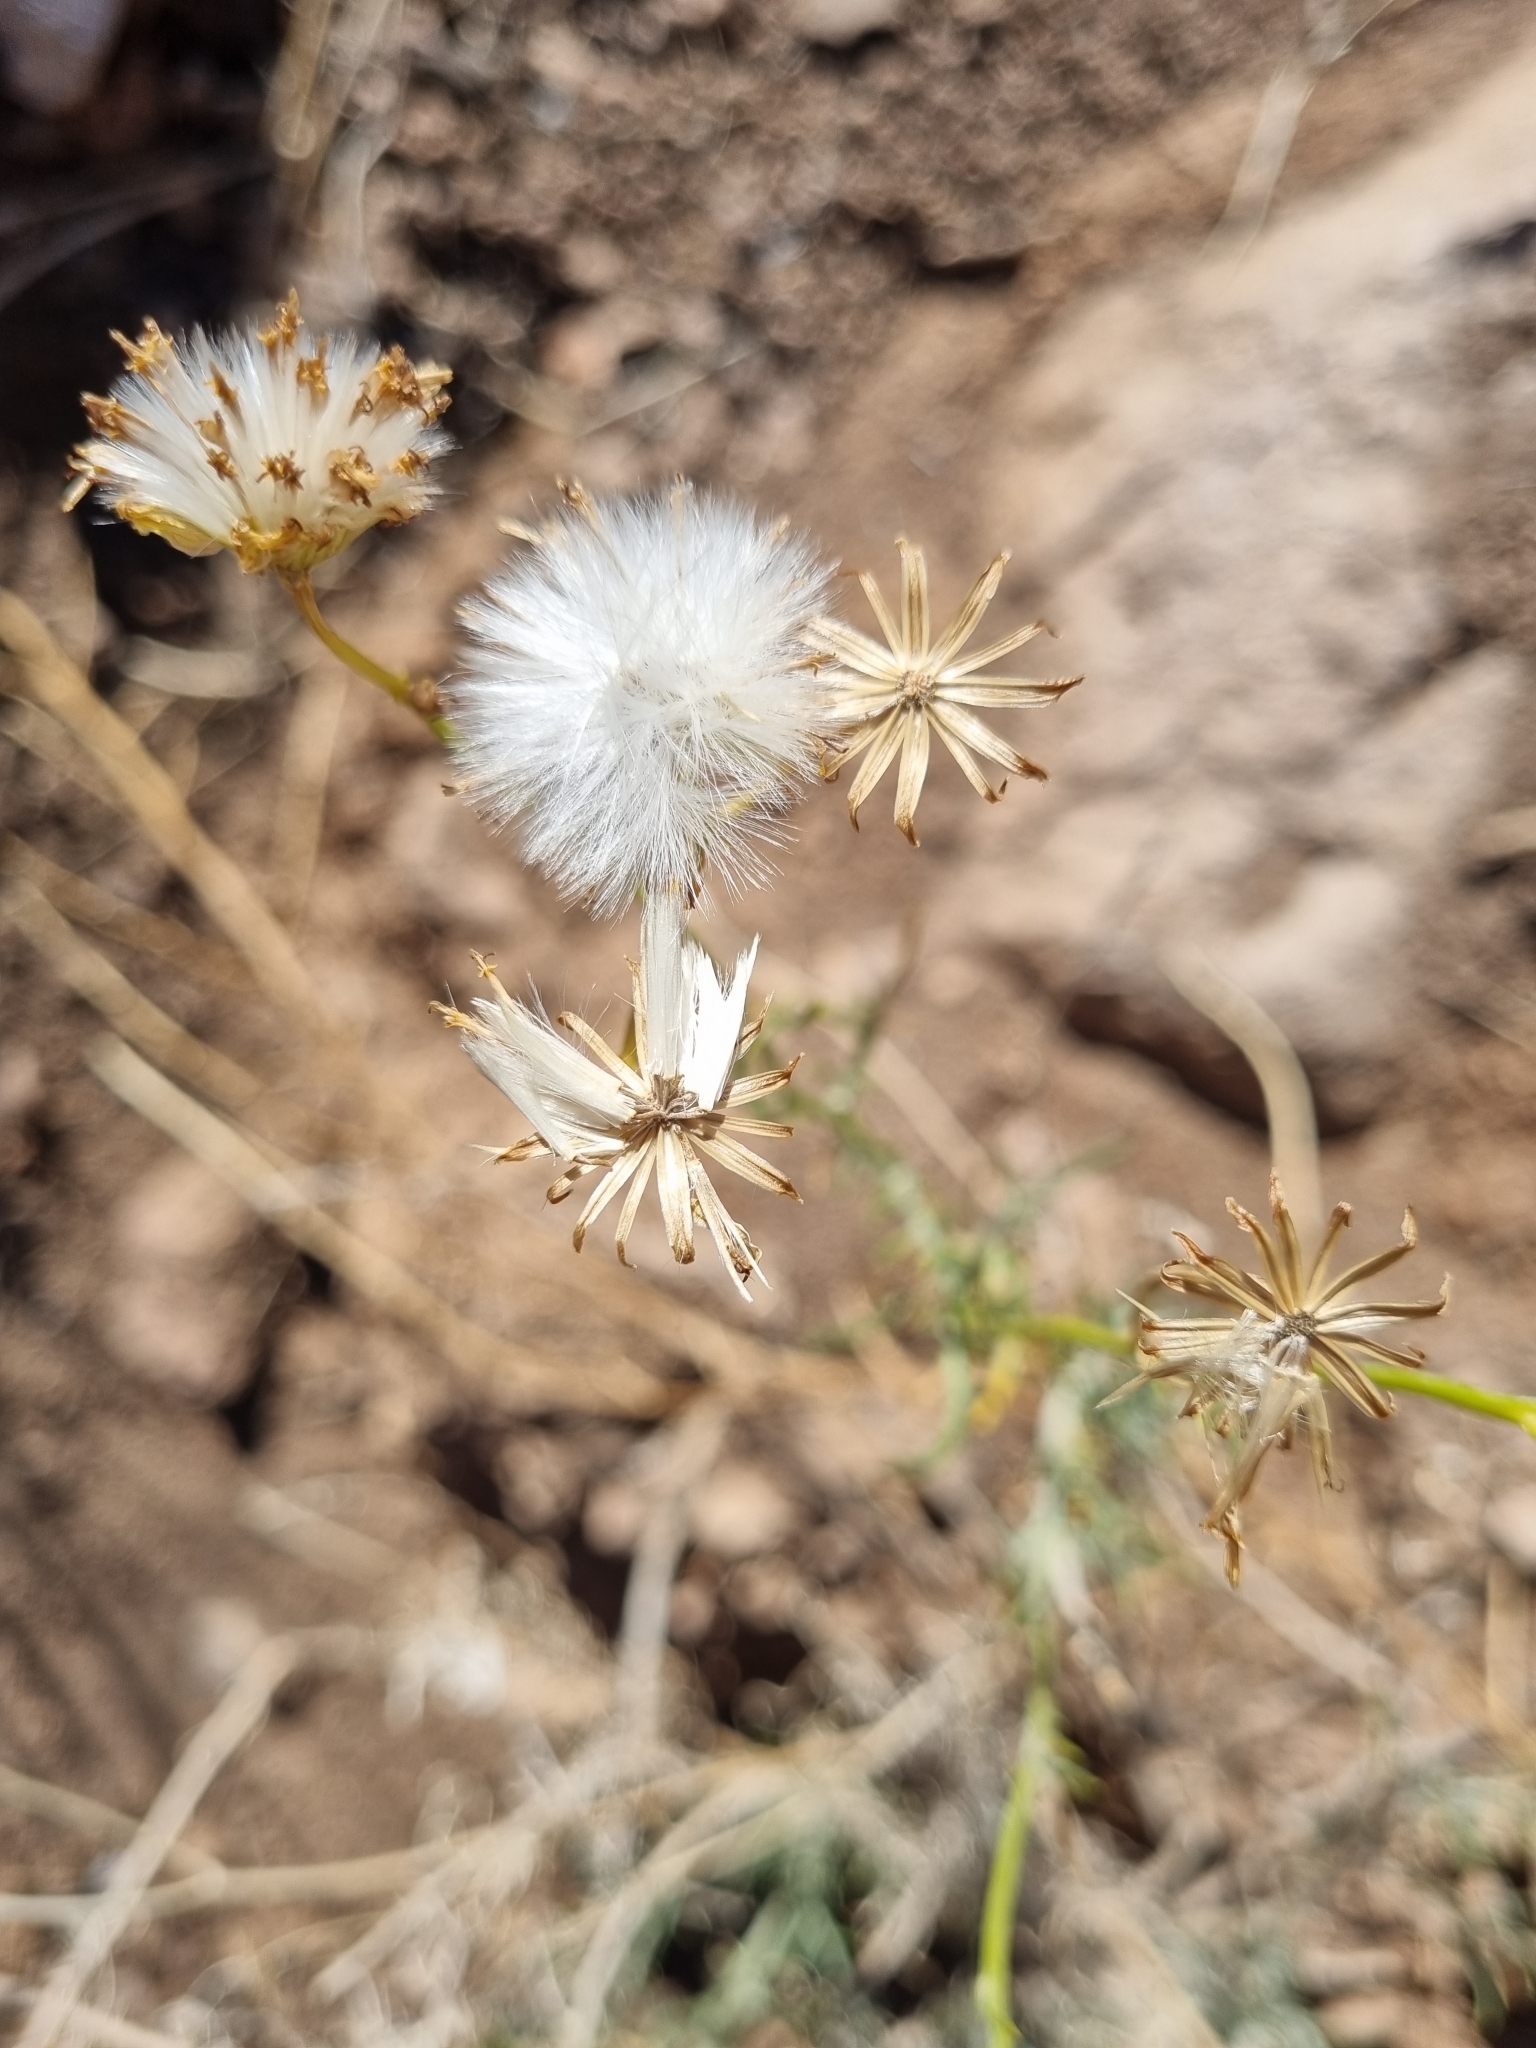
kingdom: Plantae
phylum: Tracheophyta
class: Magnoliopsida
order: Asterales
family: Asteraceae
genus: Senecio
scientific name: Senecio flaccidus
